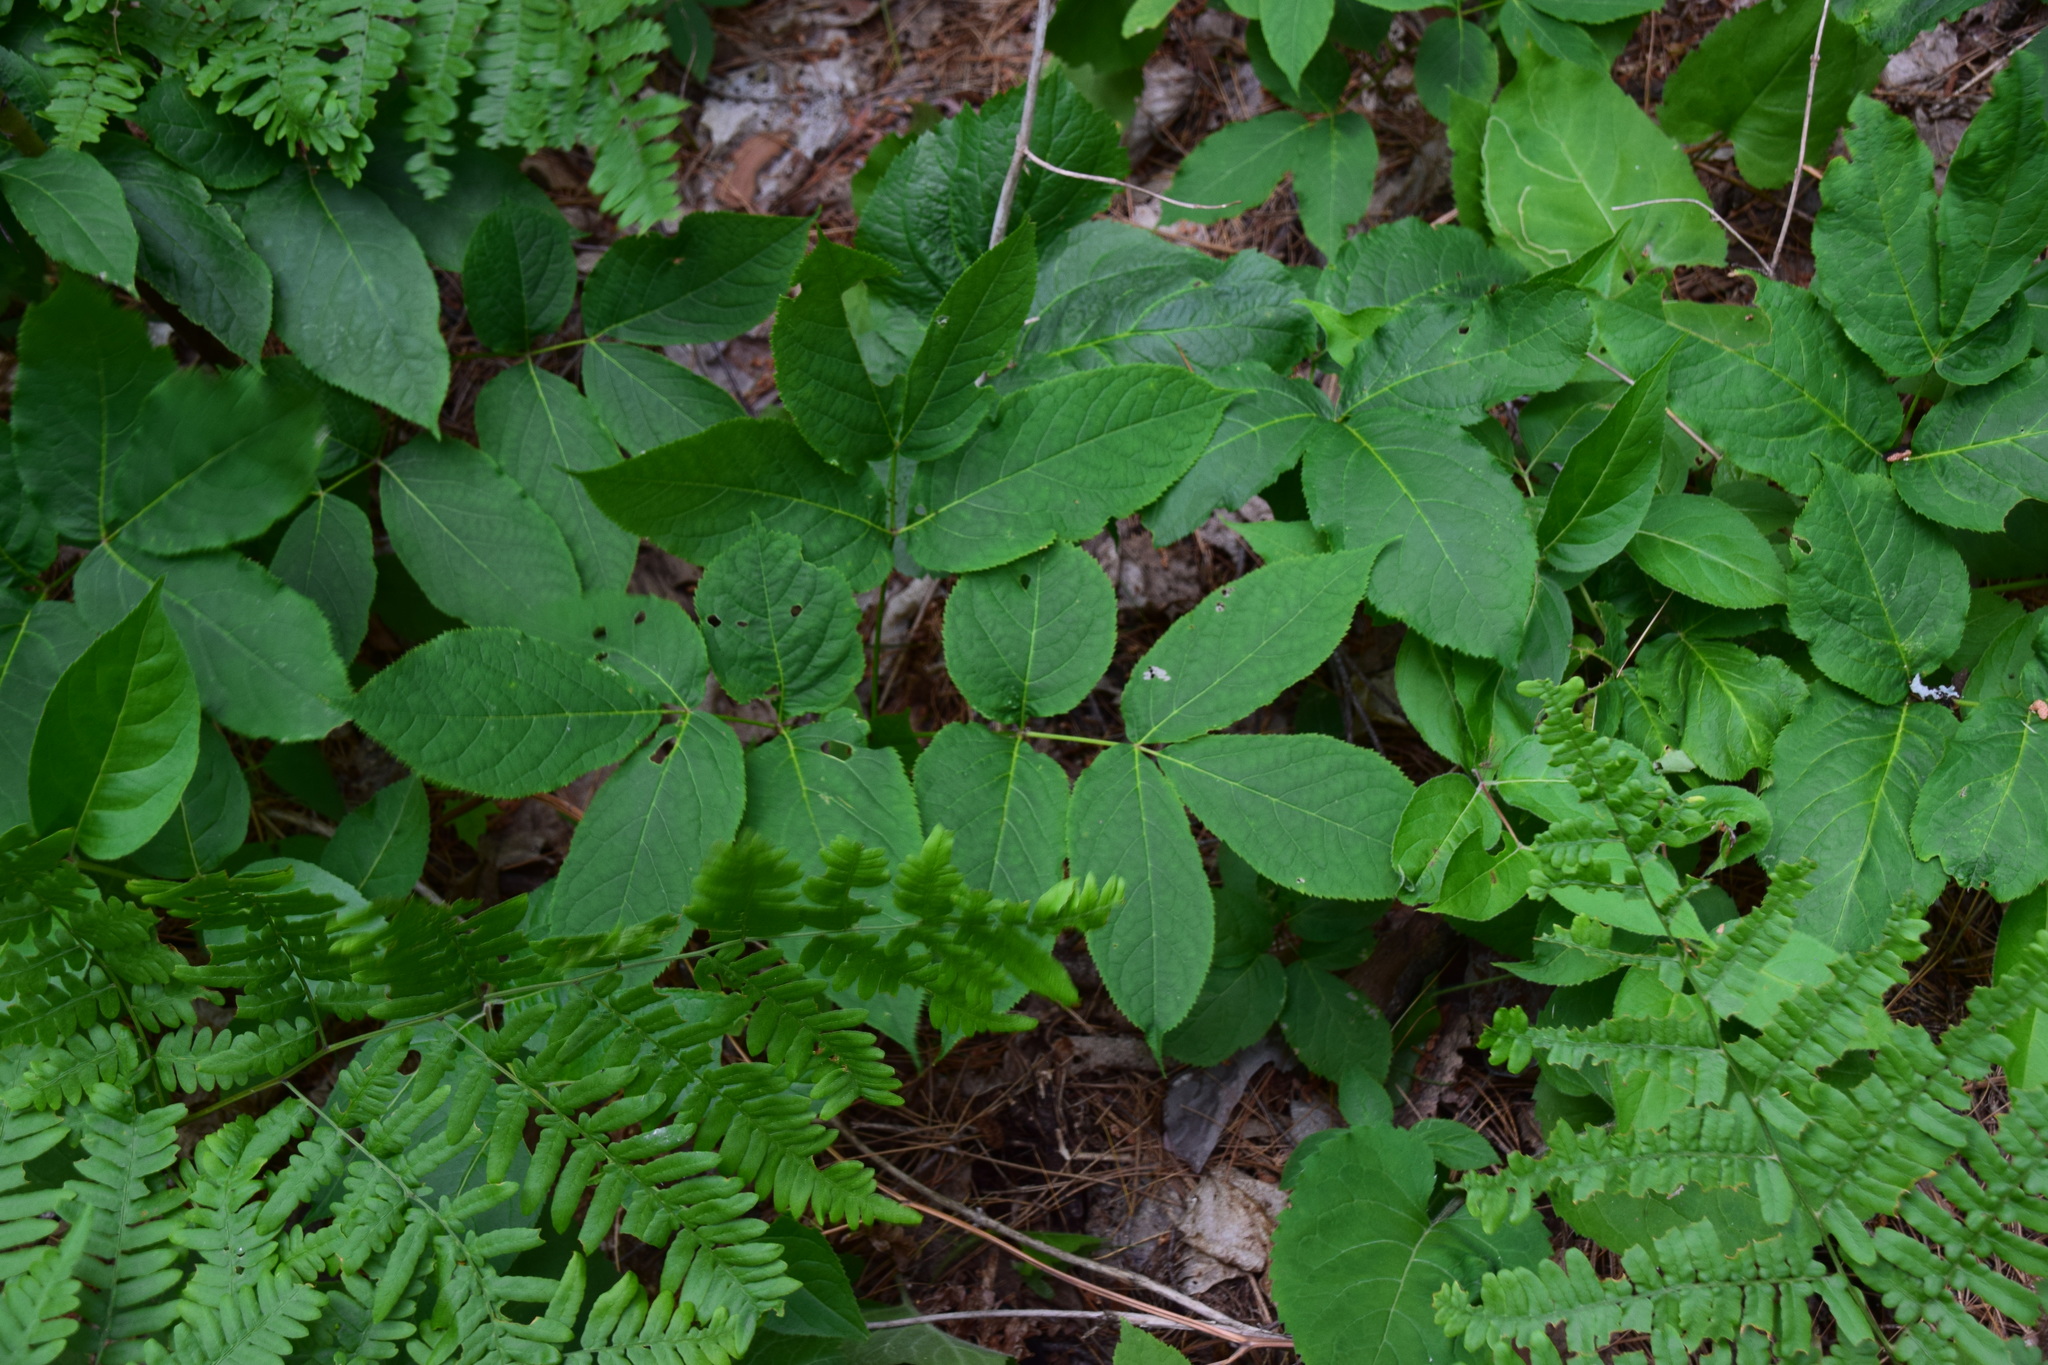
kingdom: Plantae
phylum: Tracheophyta
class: Magnoliopsida
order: Apiales
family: Araliaceae
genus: Aralia
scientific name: Aralia nudicaulis
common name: Wild sarsaparilla
